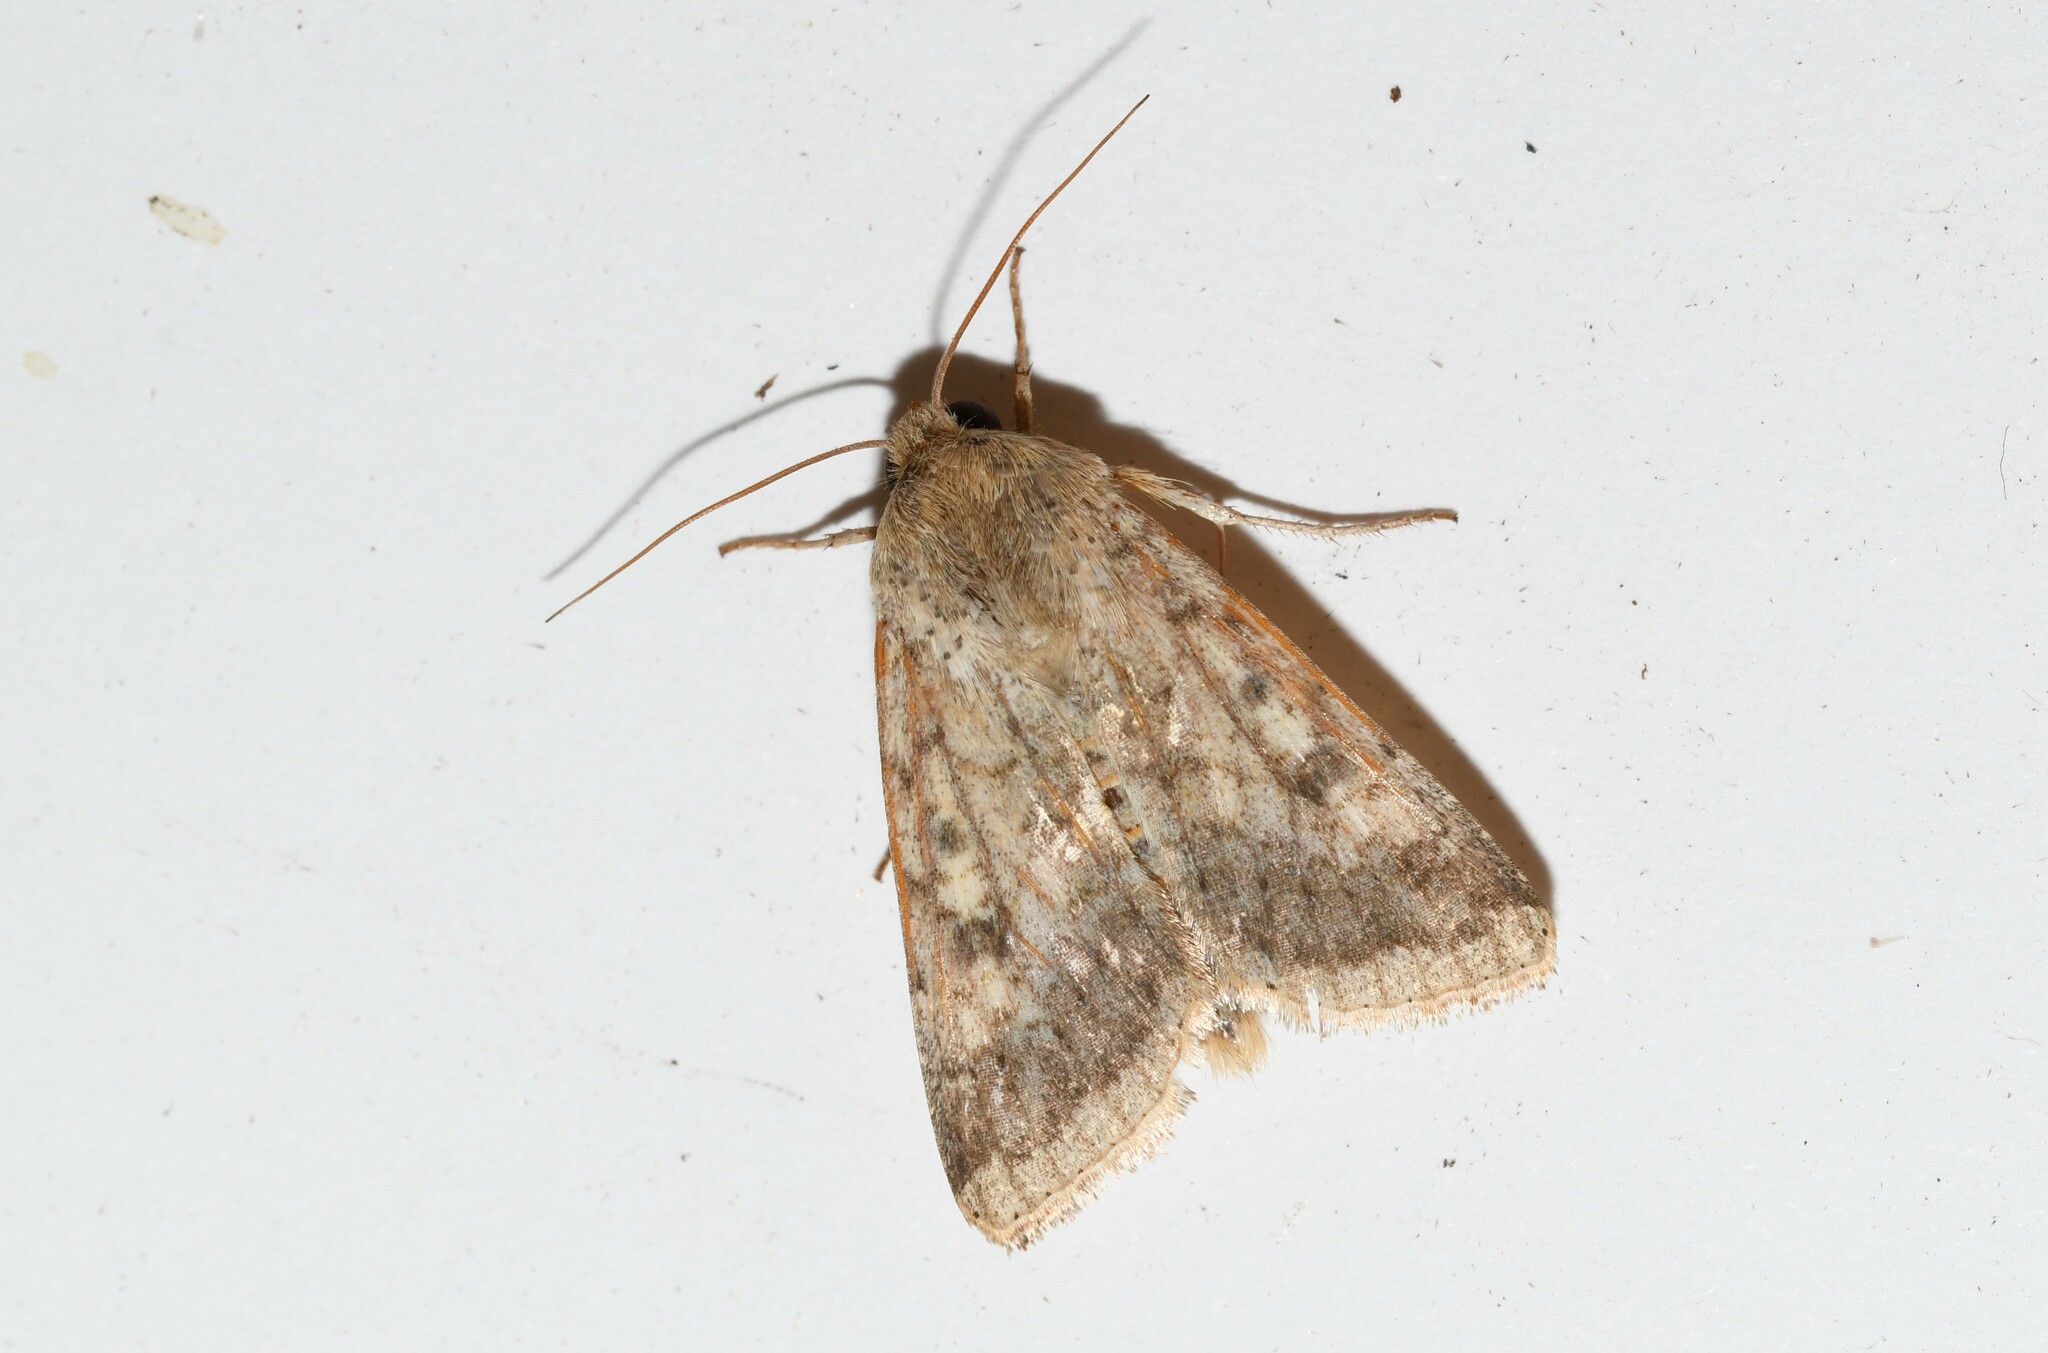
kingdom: Animalia
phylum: Arthropoda
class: Insecta
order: Lepidoptera
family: Noctuidae
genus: Helicoverpa
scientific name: Helicoverpa armigera
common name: Cotton bollworm
